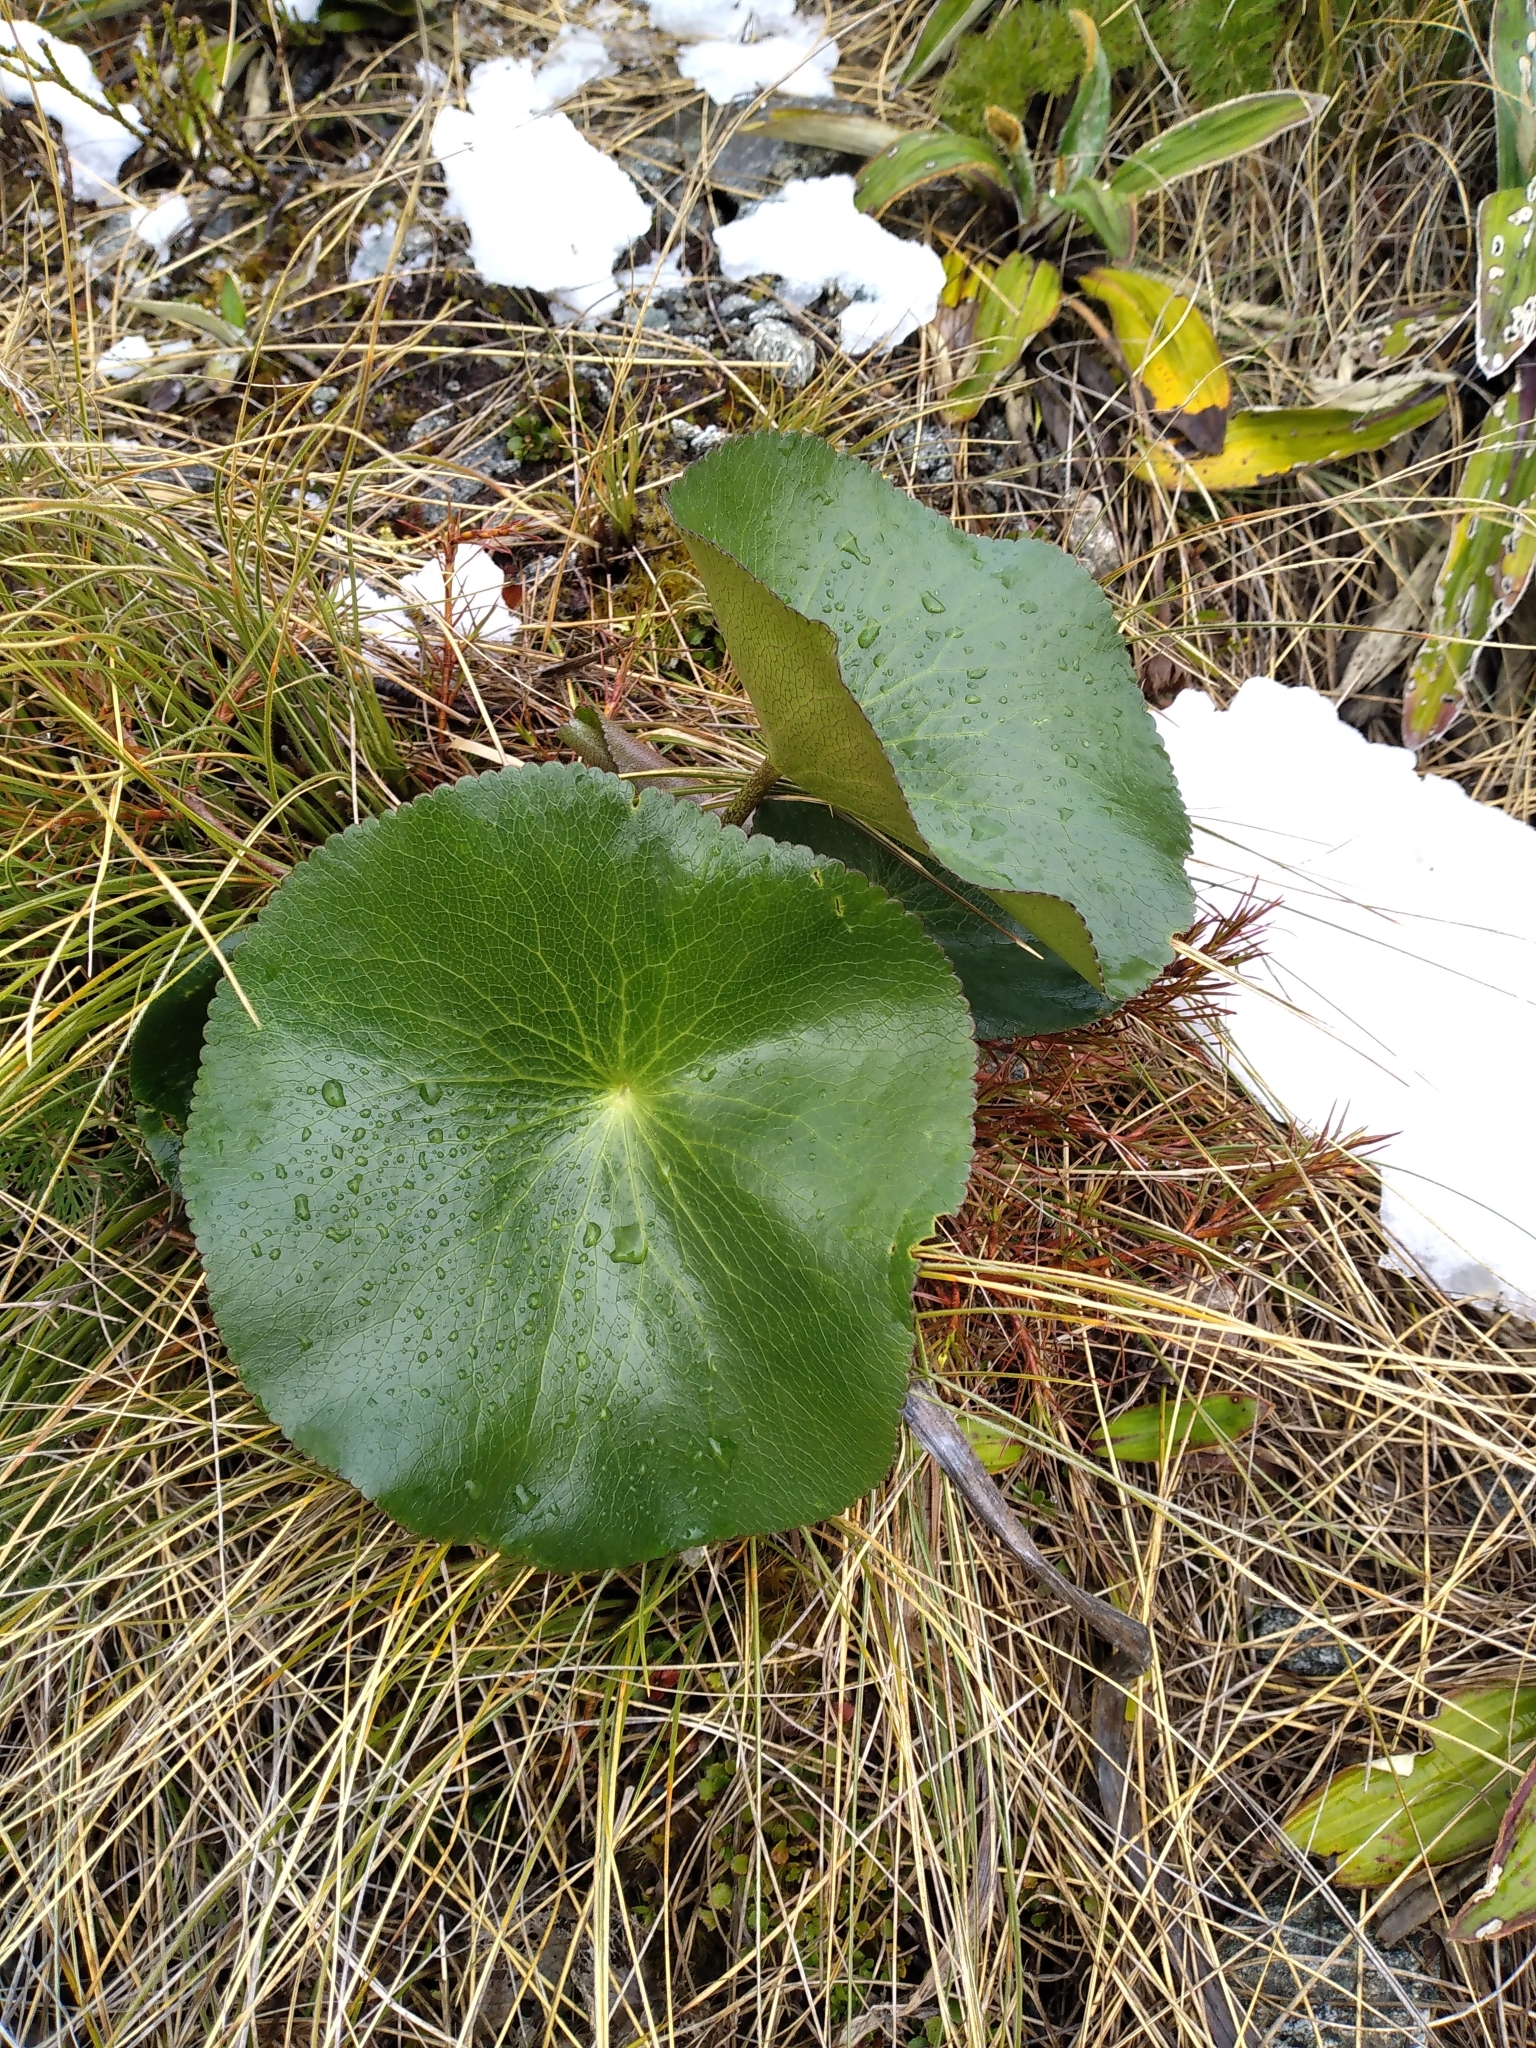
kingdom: Plantae
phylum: Tracheophyta
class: Magnoliopsida
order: Ranunculales
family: Ranunculaceae
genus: Ranunculus
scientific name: Ranunculus lyallii
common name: Mountain-lily
